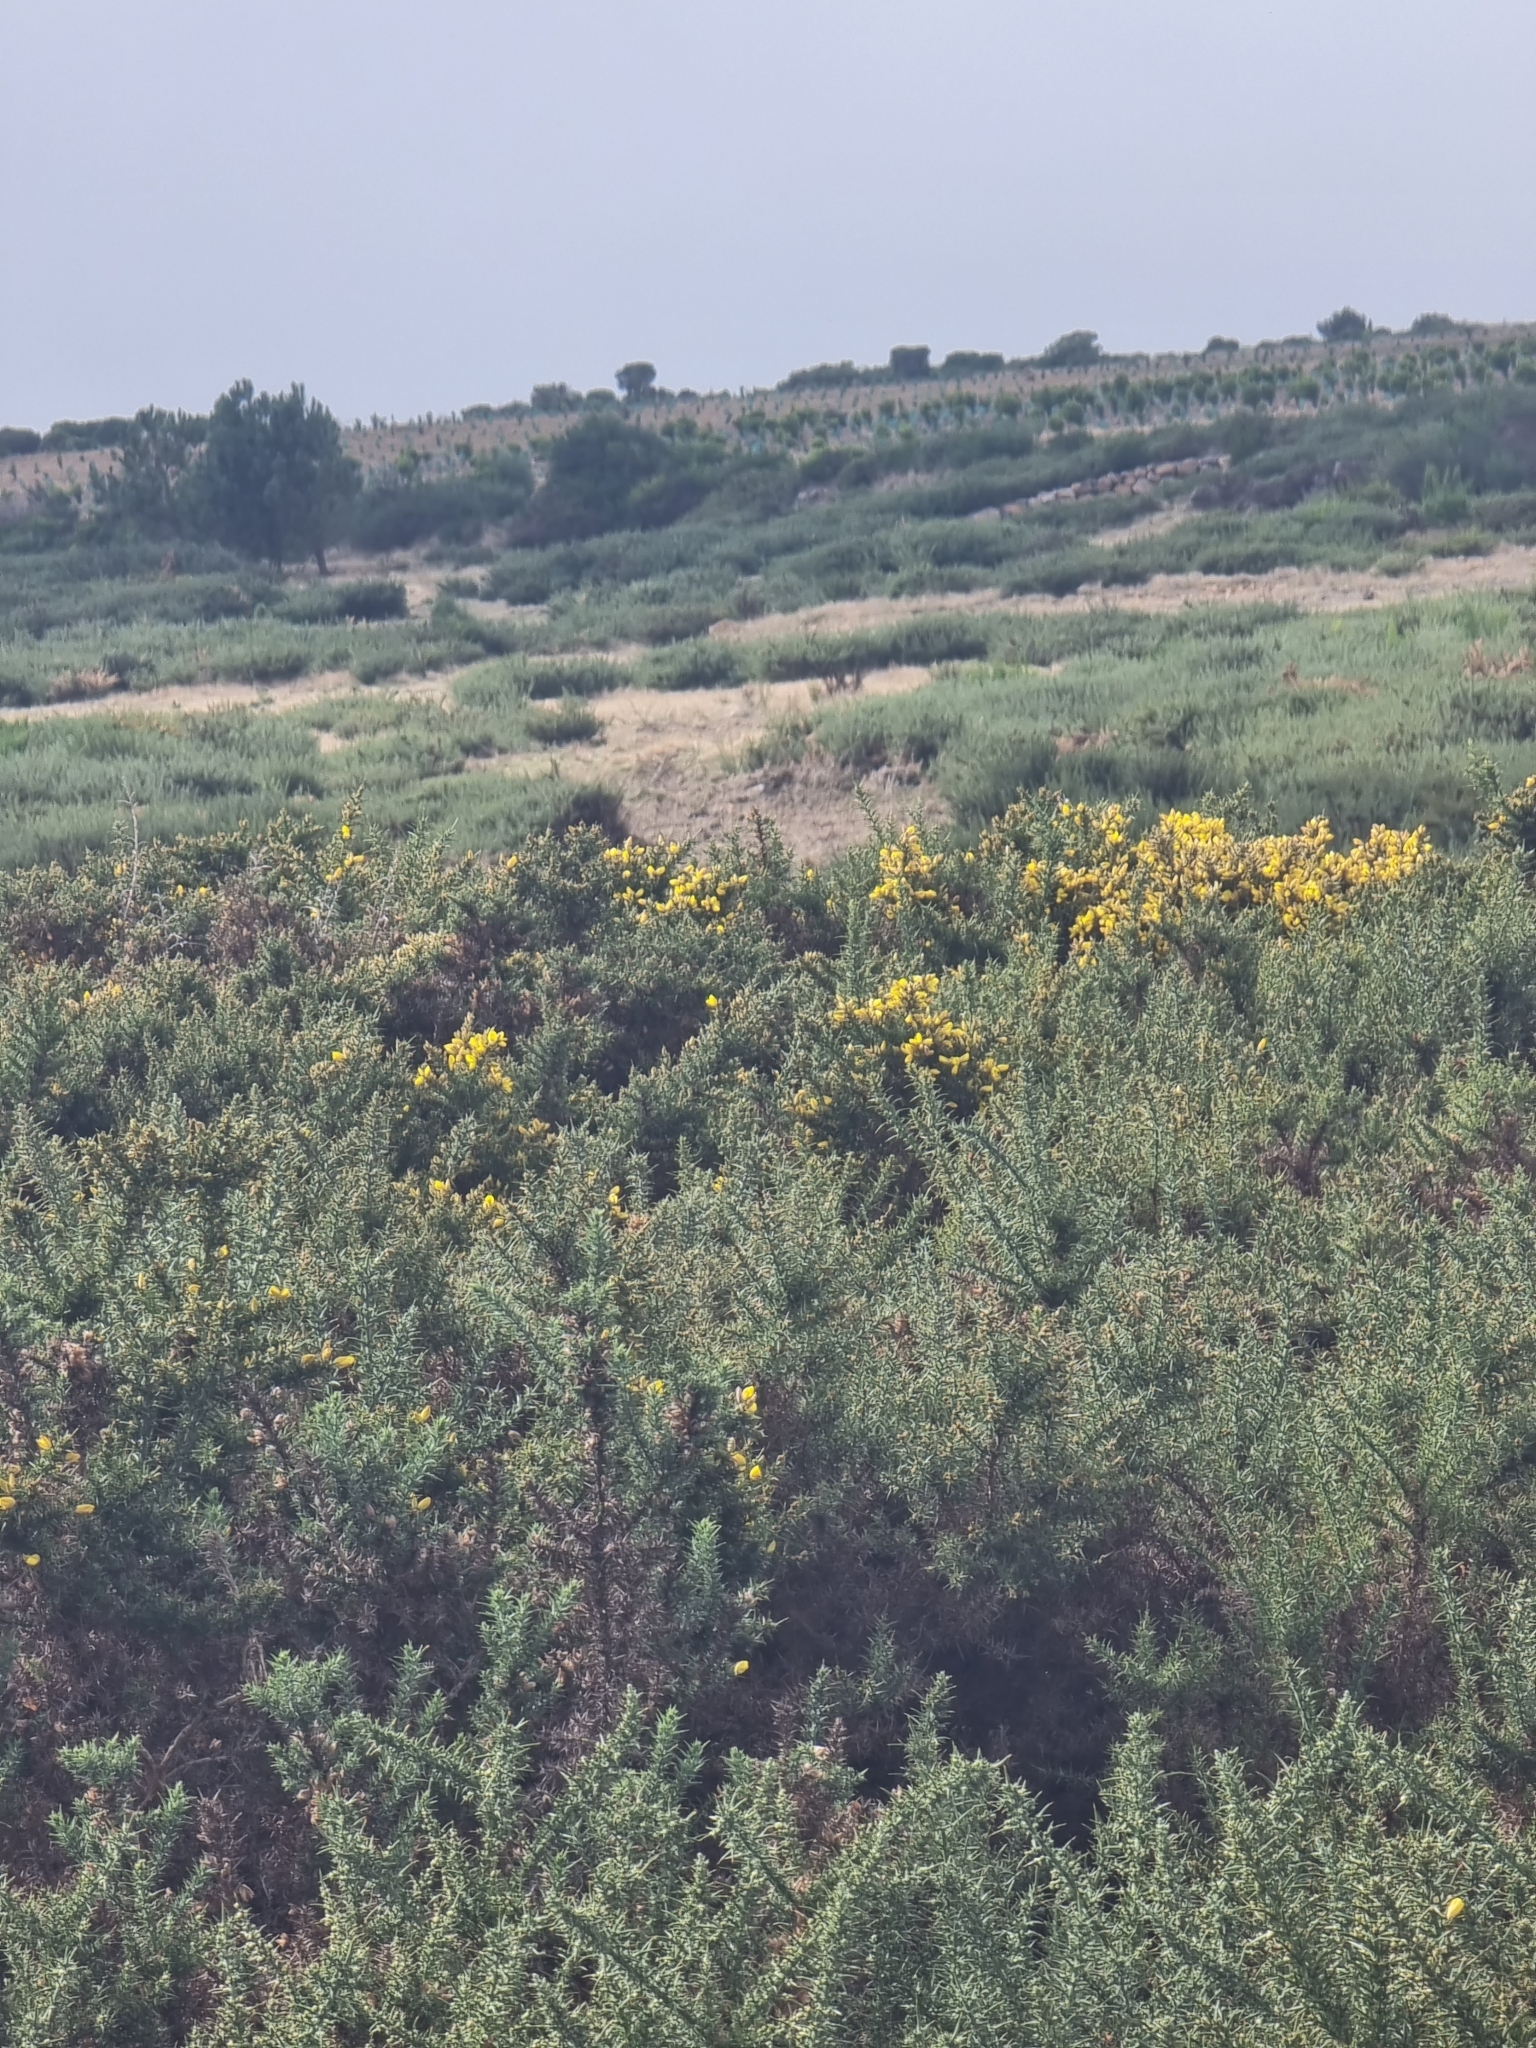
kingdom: Plantae
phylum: Tracheophyta
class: Magnoliopsida
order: Fabales
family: Fabaceae
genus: Ulex
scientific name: Ulex europaeus
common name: Common gorse
